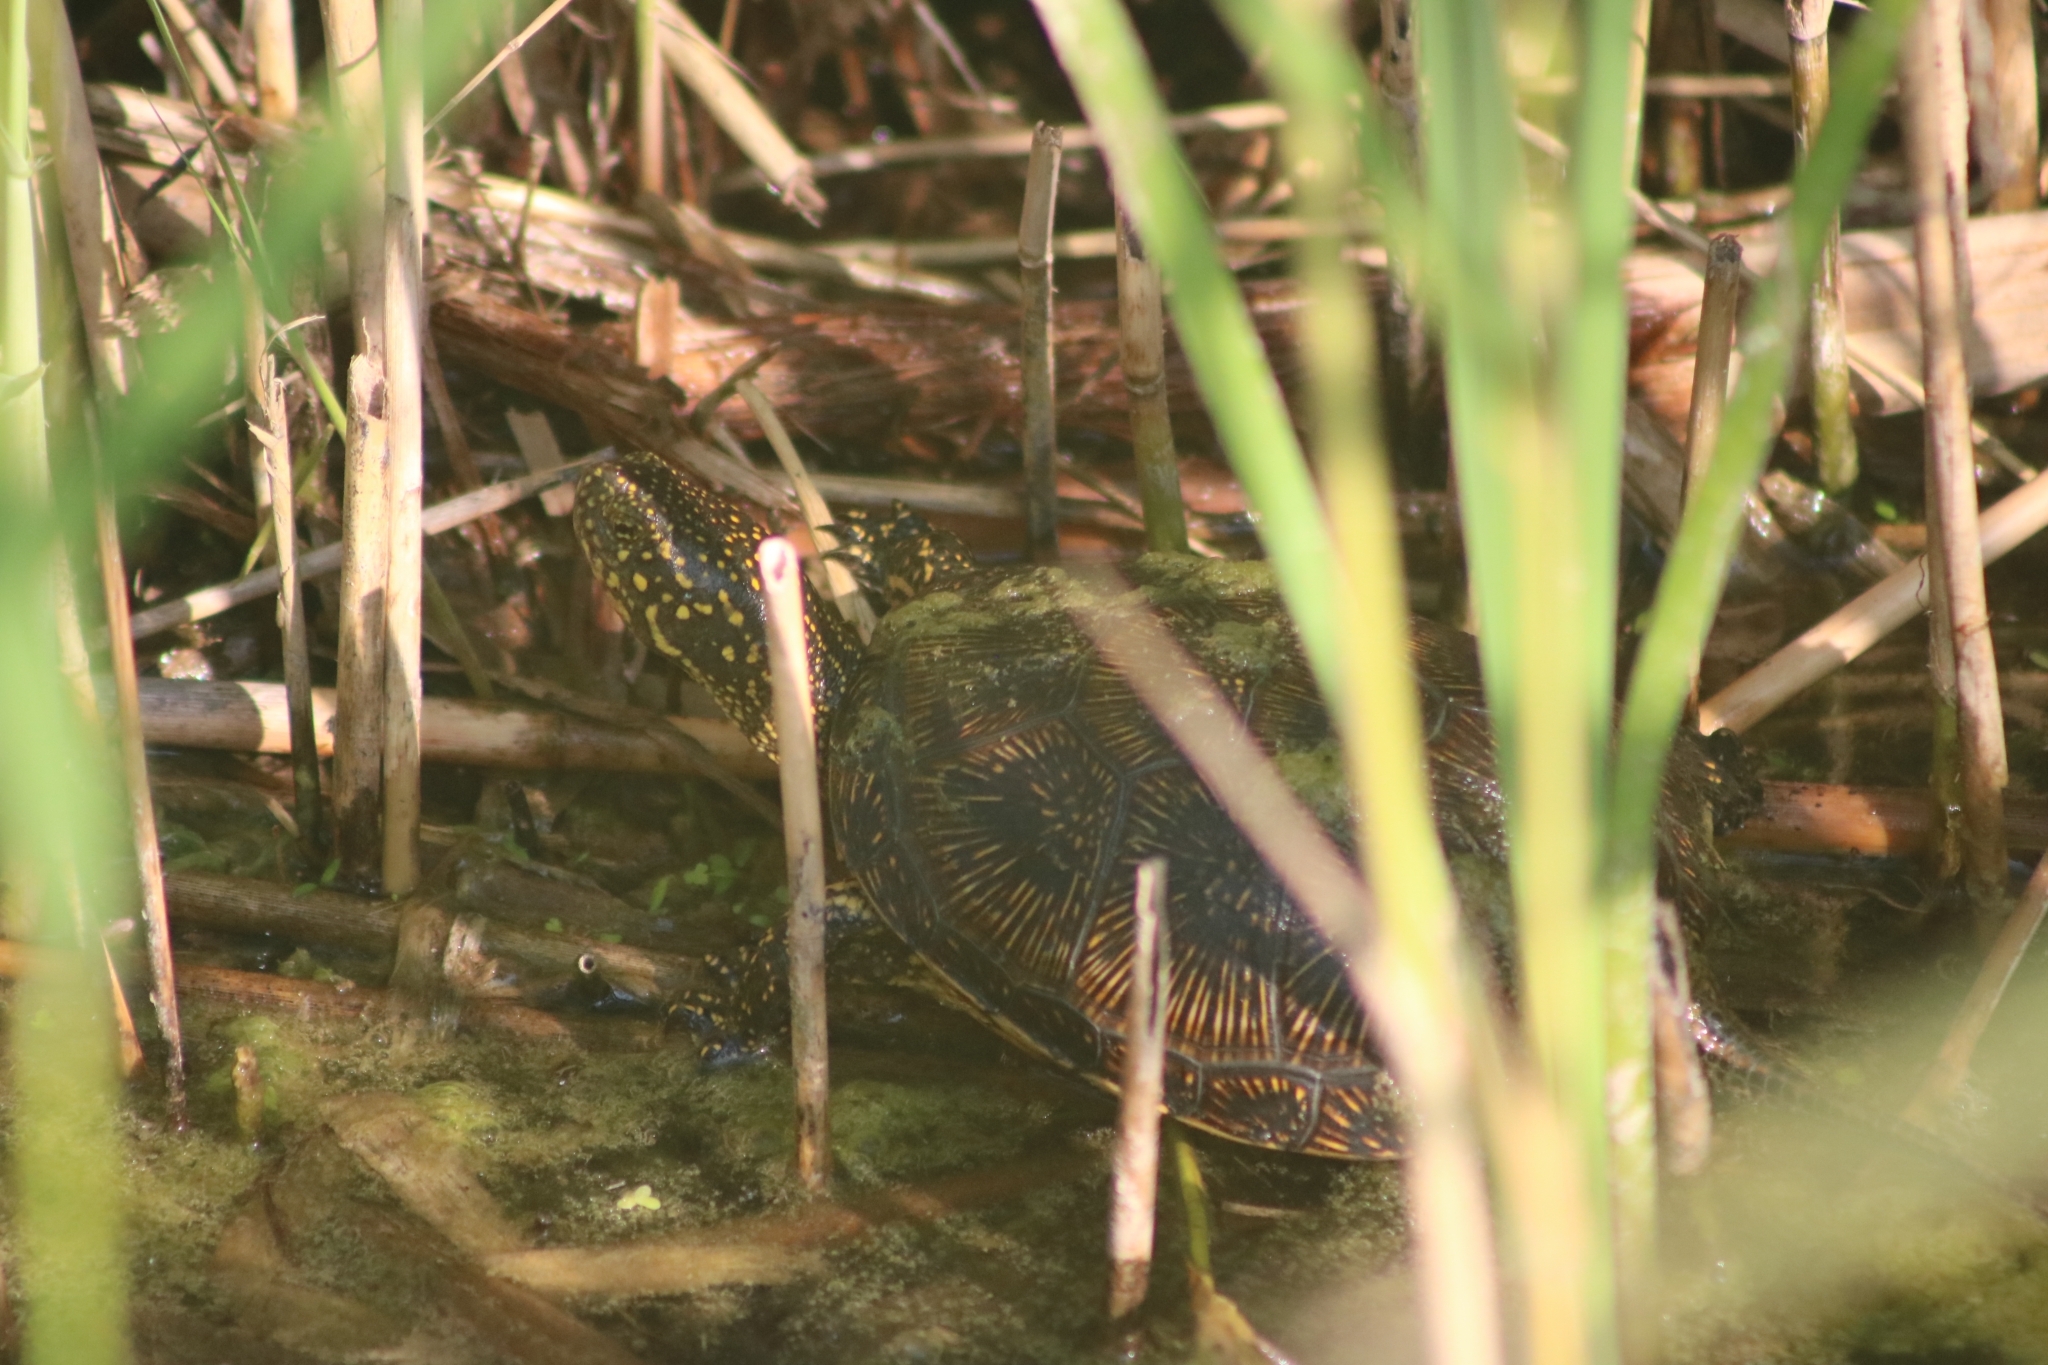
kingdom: Animalia
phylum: Chordata
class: Testudines
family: Emydidae
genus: Emys
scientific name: Emys orbicularis
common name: European pond turtle
